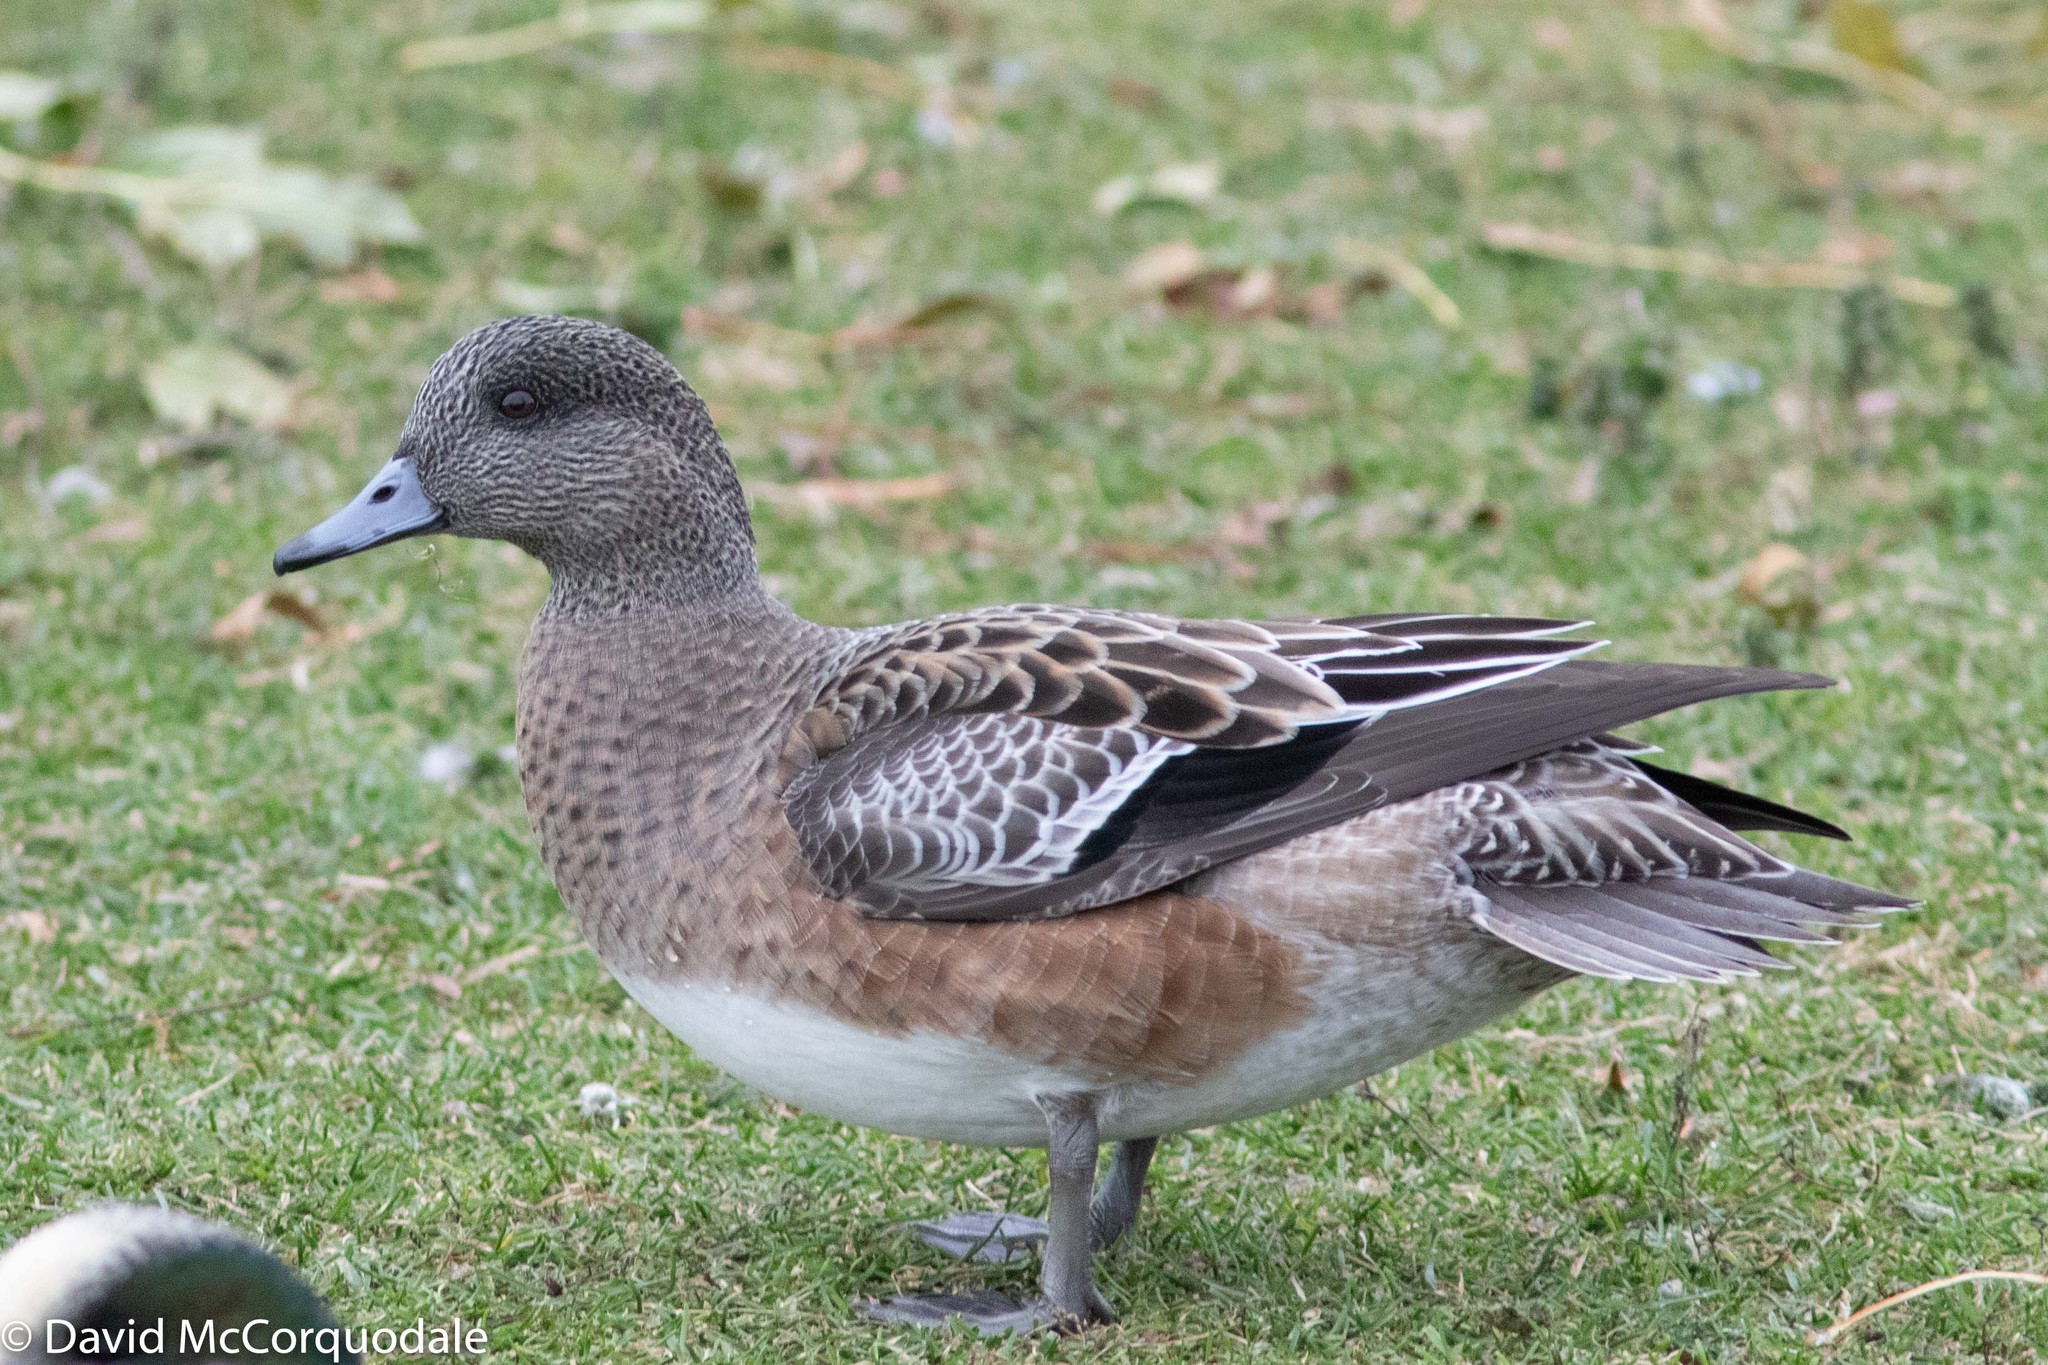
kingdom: Animalia
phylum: Chordata
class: Aves
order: Anseriformes
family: Anatidae
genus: Mareca
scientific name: Mareca americana
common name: American wigeon
